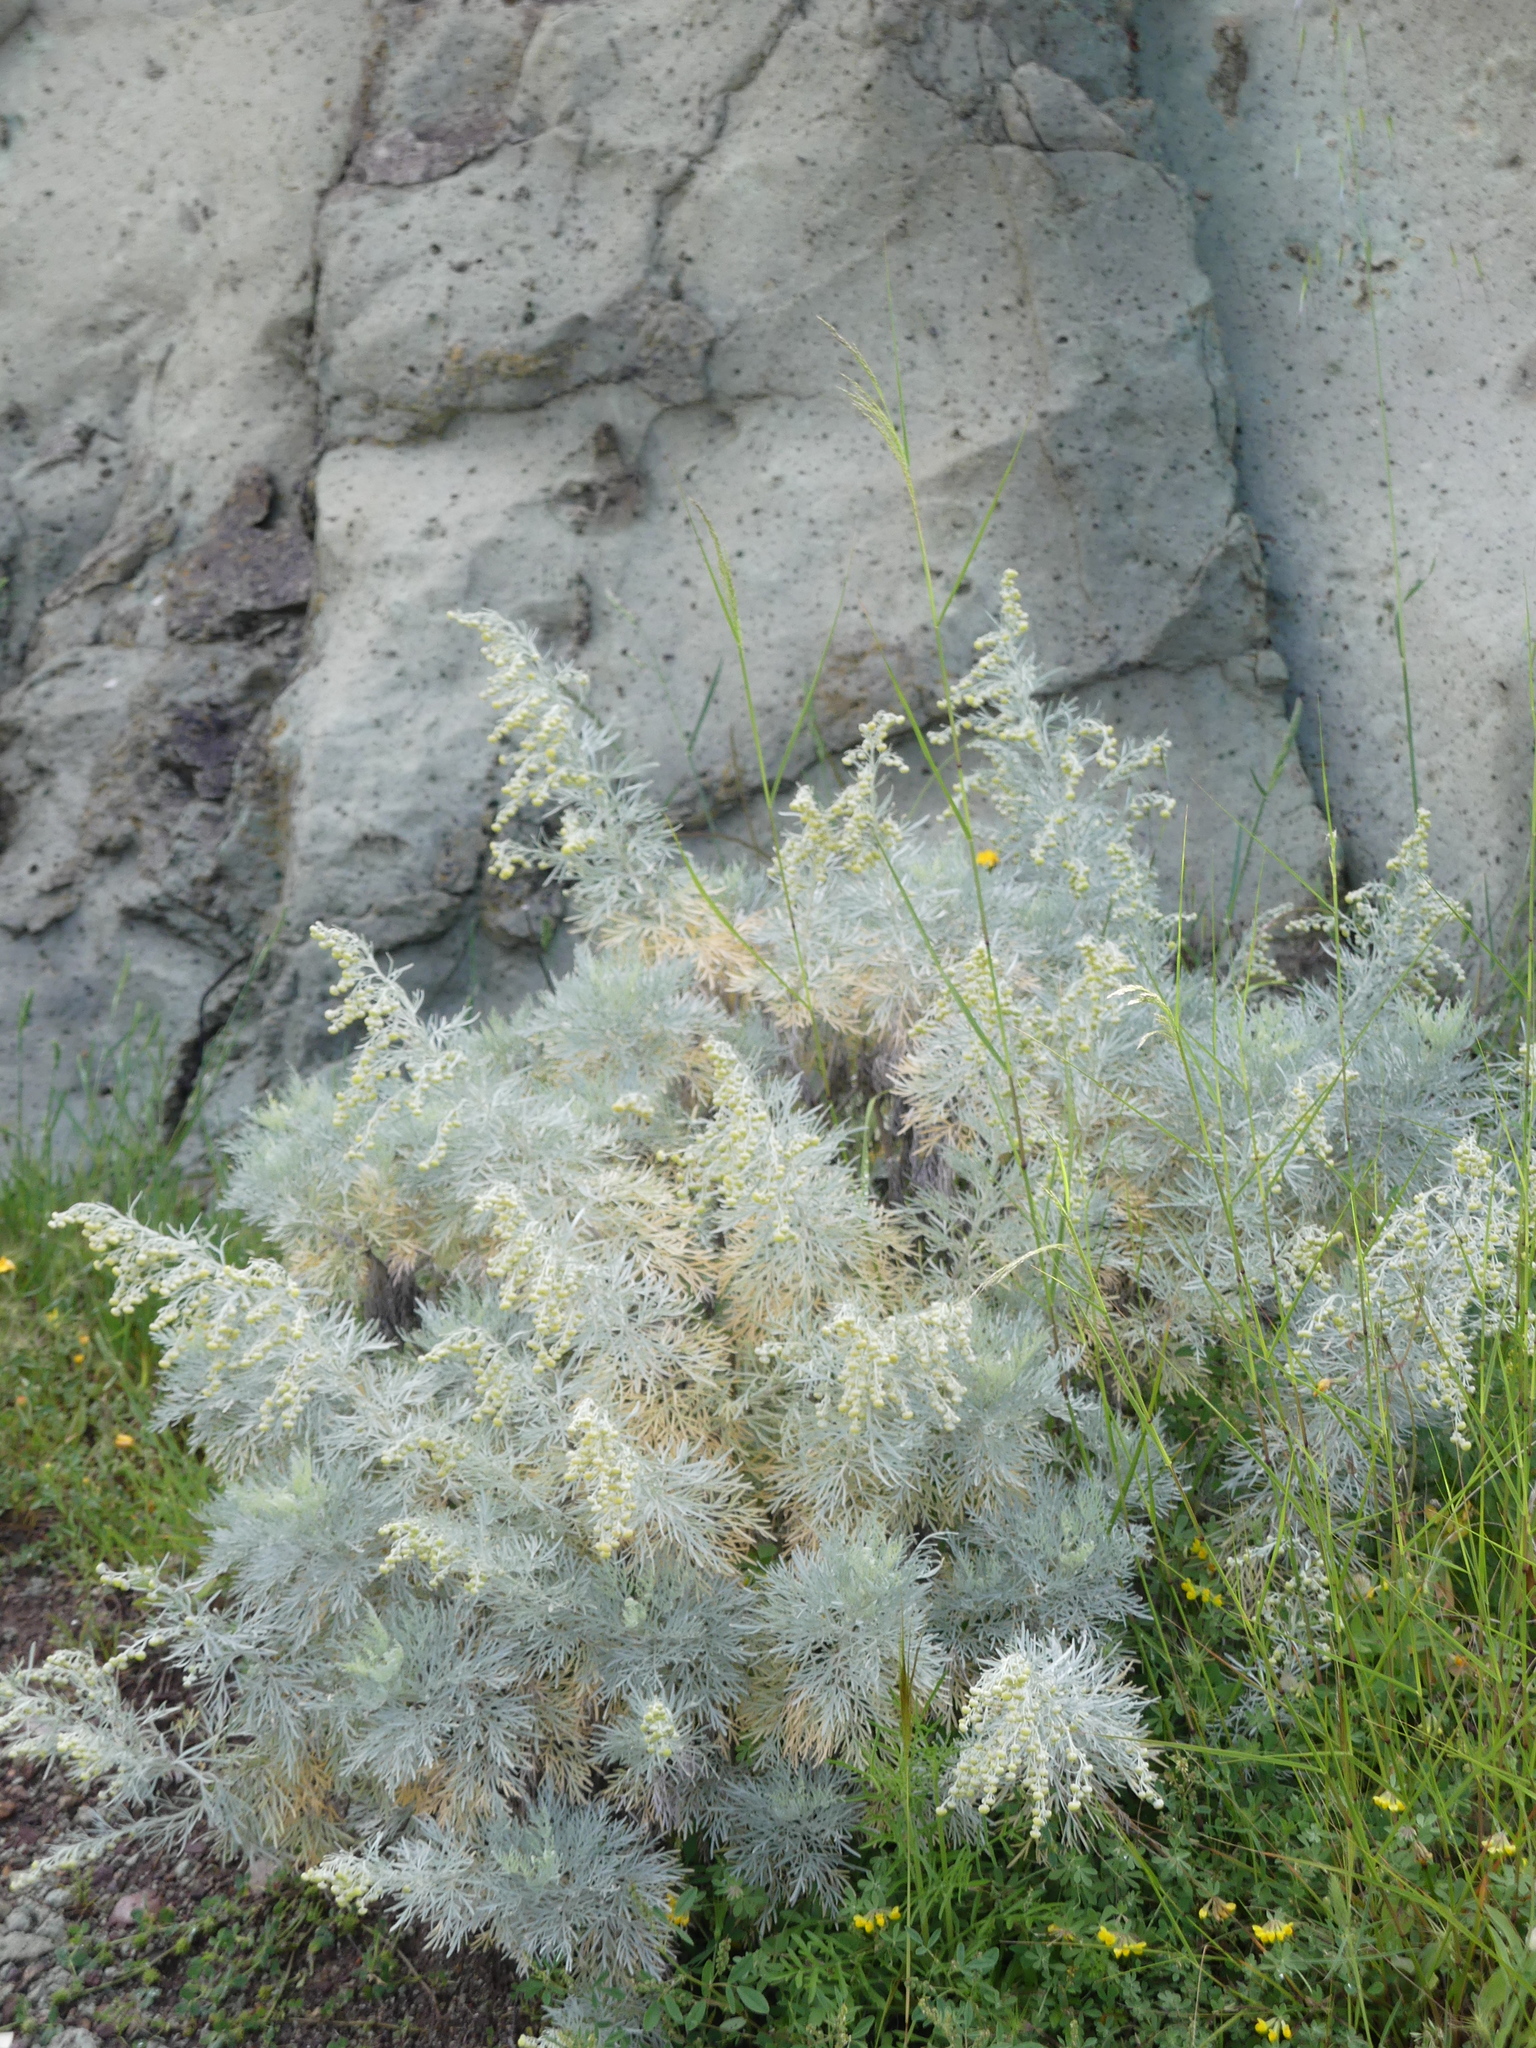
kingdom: Plantae
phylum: Tracheophyta
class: Magnoliopsida
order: Asterales
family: Asteraceae
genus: Artemisia
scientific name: Artemisia arborescens
